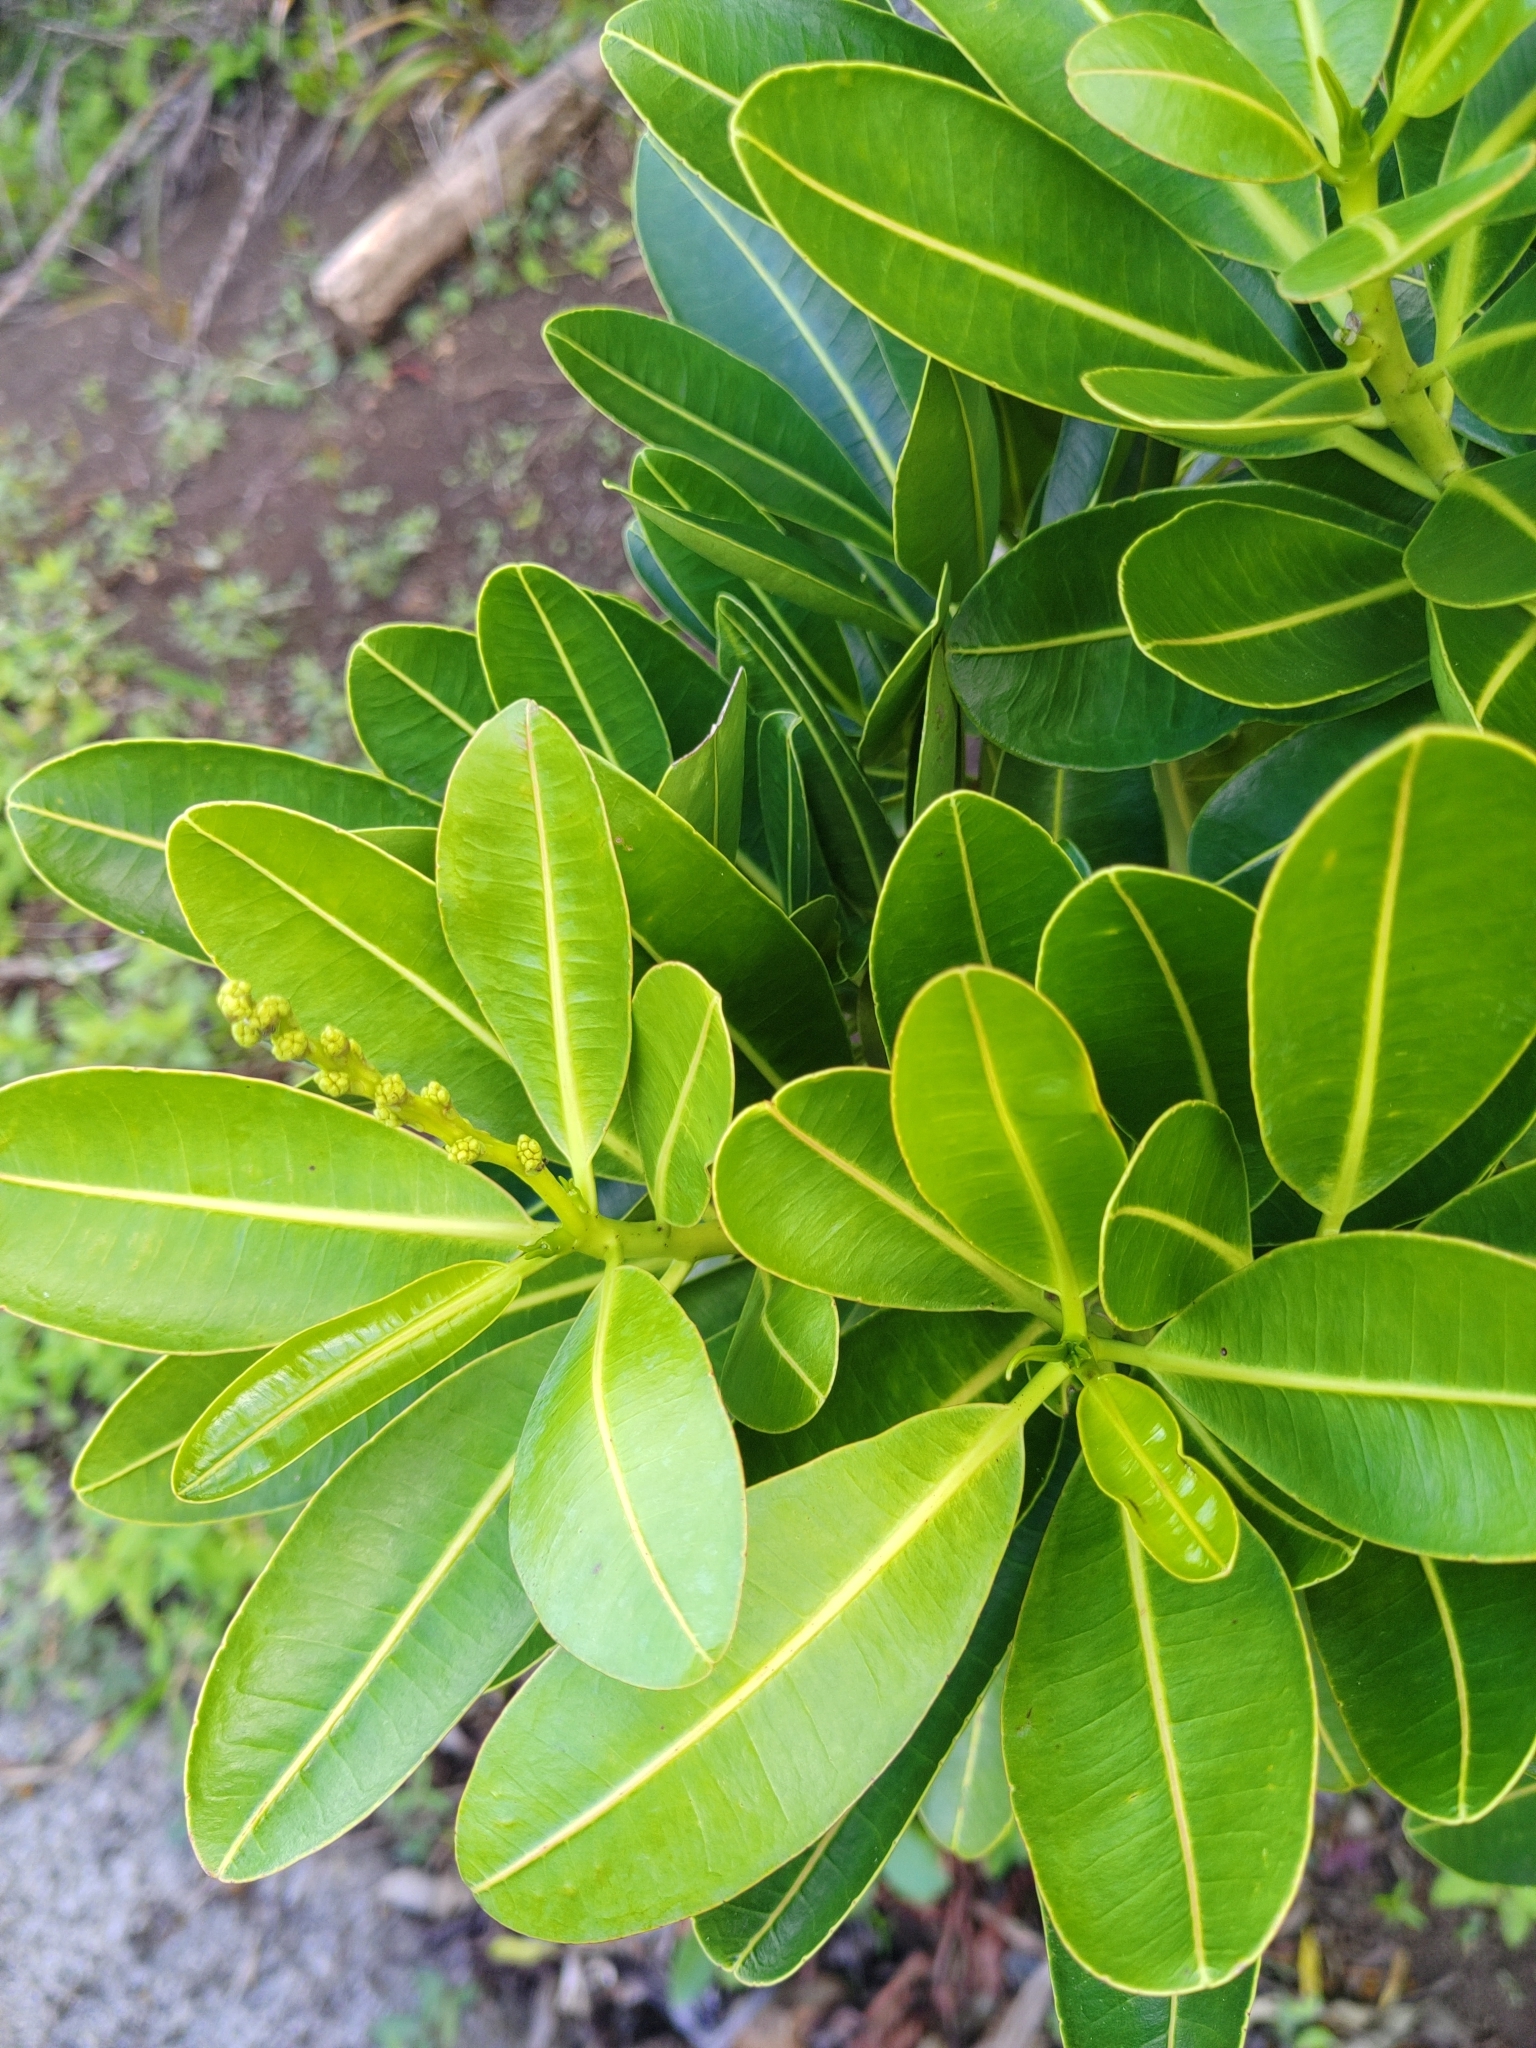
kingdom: Plantae
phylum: Tracheophyta
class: Magnoliopsida
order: Malpighiales
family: Euphorbiaceae
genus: Stillingia
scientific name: Stillingia lineata
